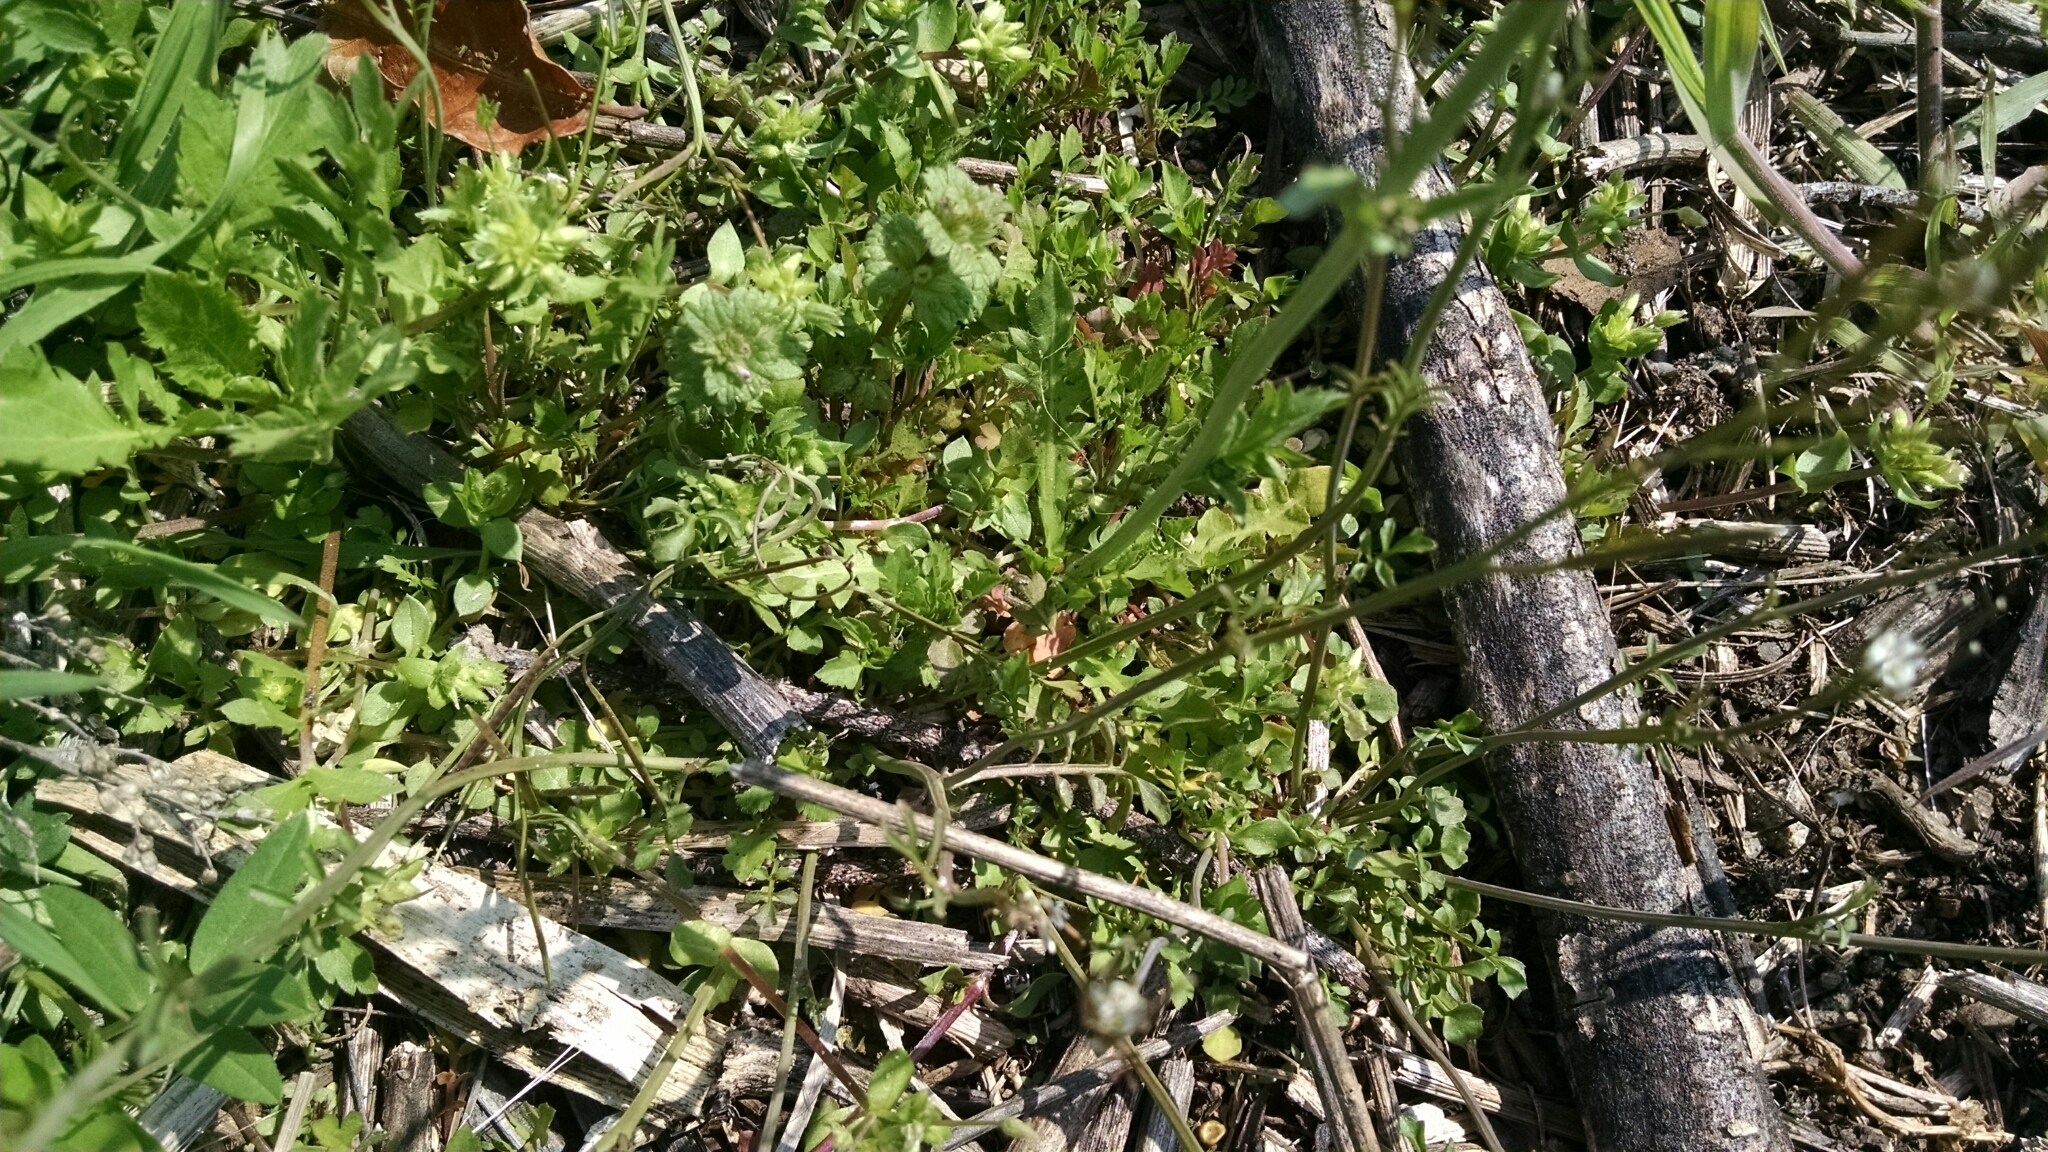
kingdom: Plantae
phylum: Tracheophyta
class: Magnoliopsida
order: Brassicales
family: Brassicaceae
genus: Capsella
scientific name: Capsella bursa-pastoris
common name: Shepherd's purse
